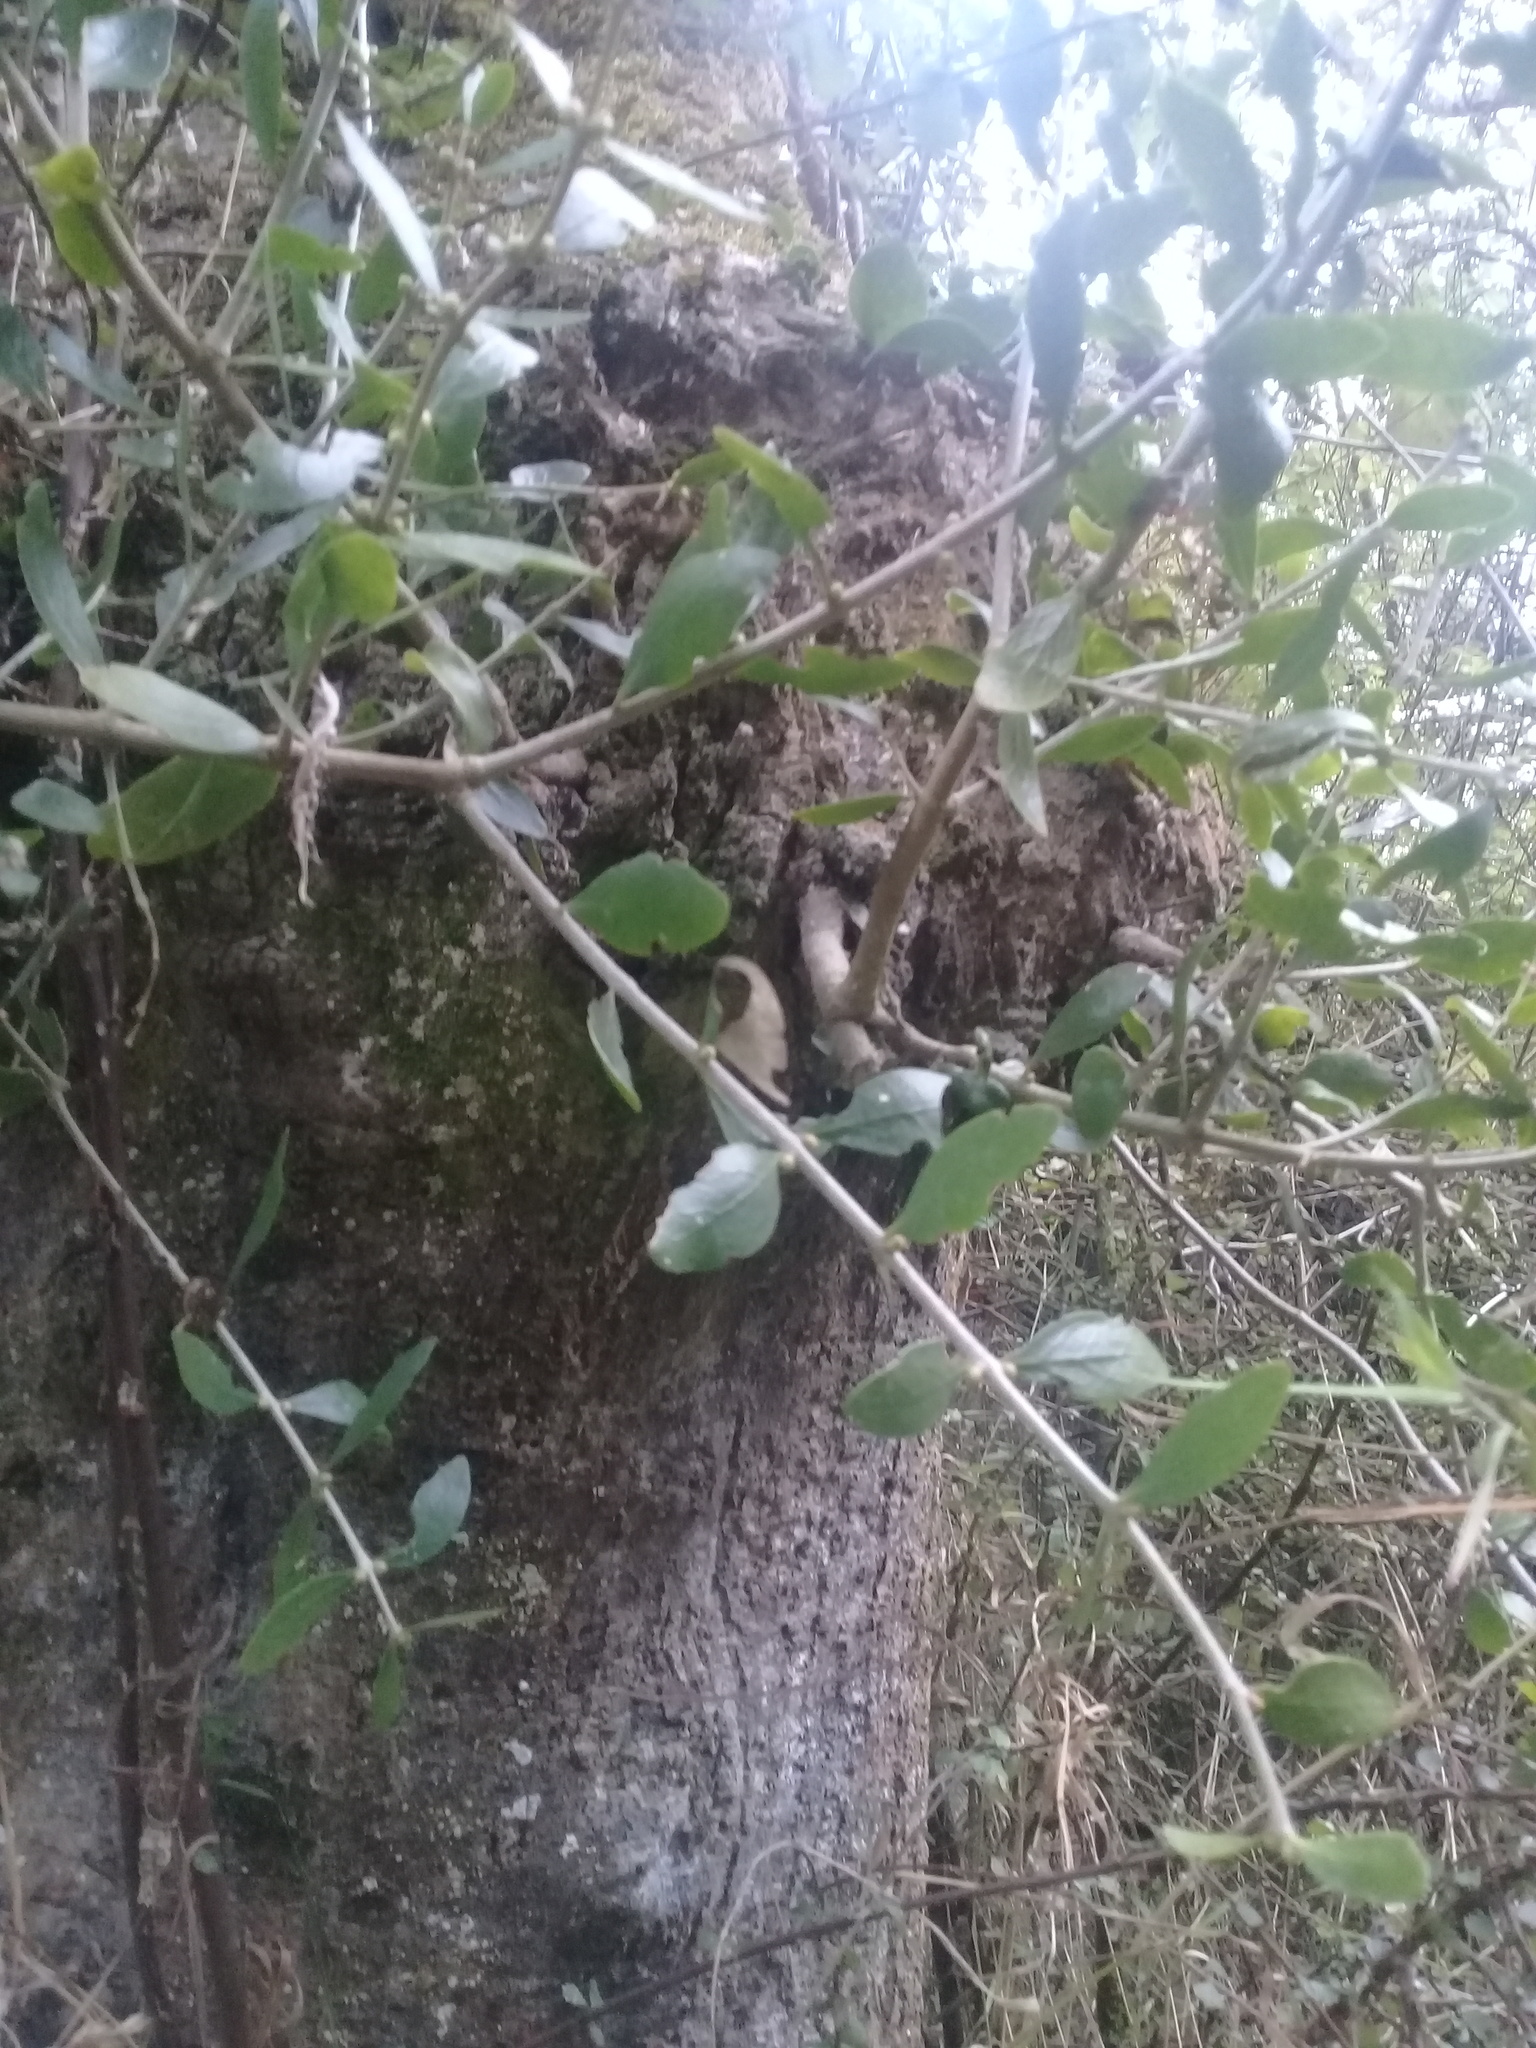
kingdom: Plantae
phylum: Tracheophyta
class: Magnoliopsida
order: Santalales
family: Loranthaceae
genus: Tupeia
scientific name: Tupeia antarctica
